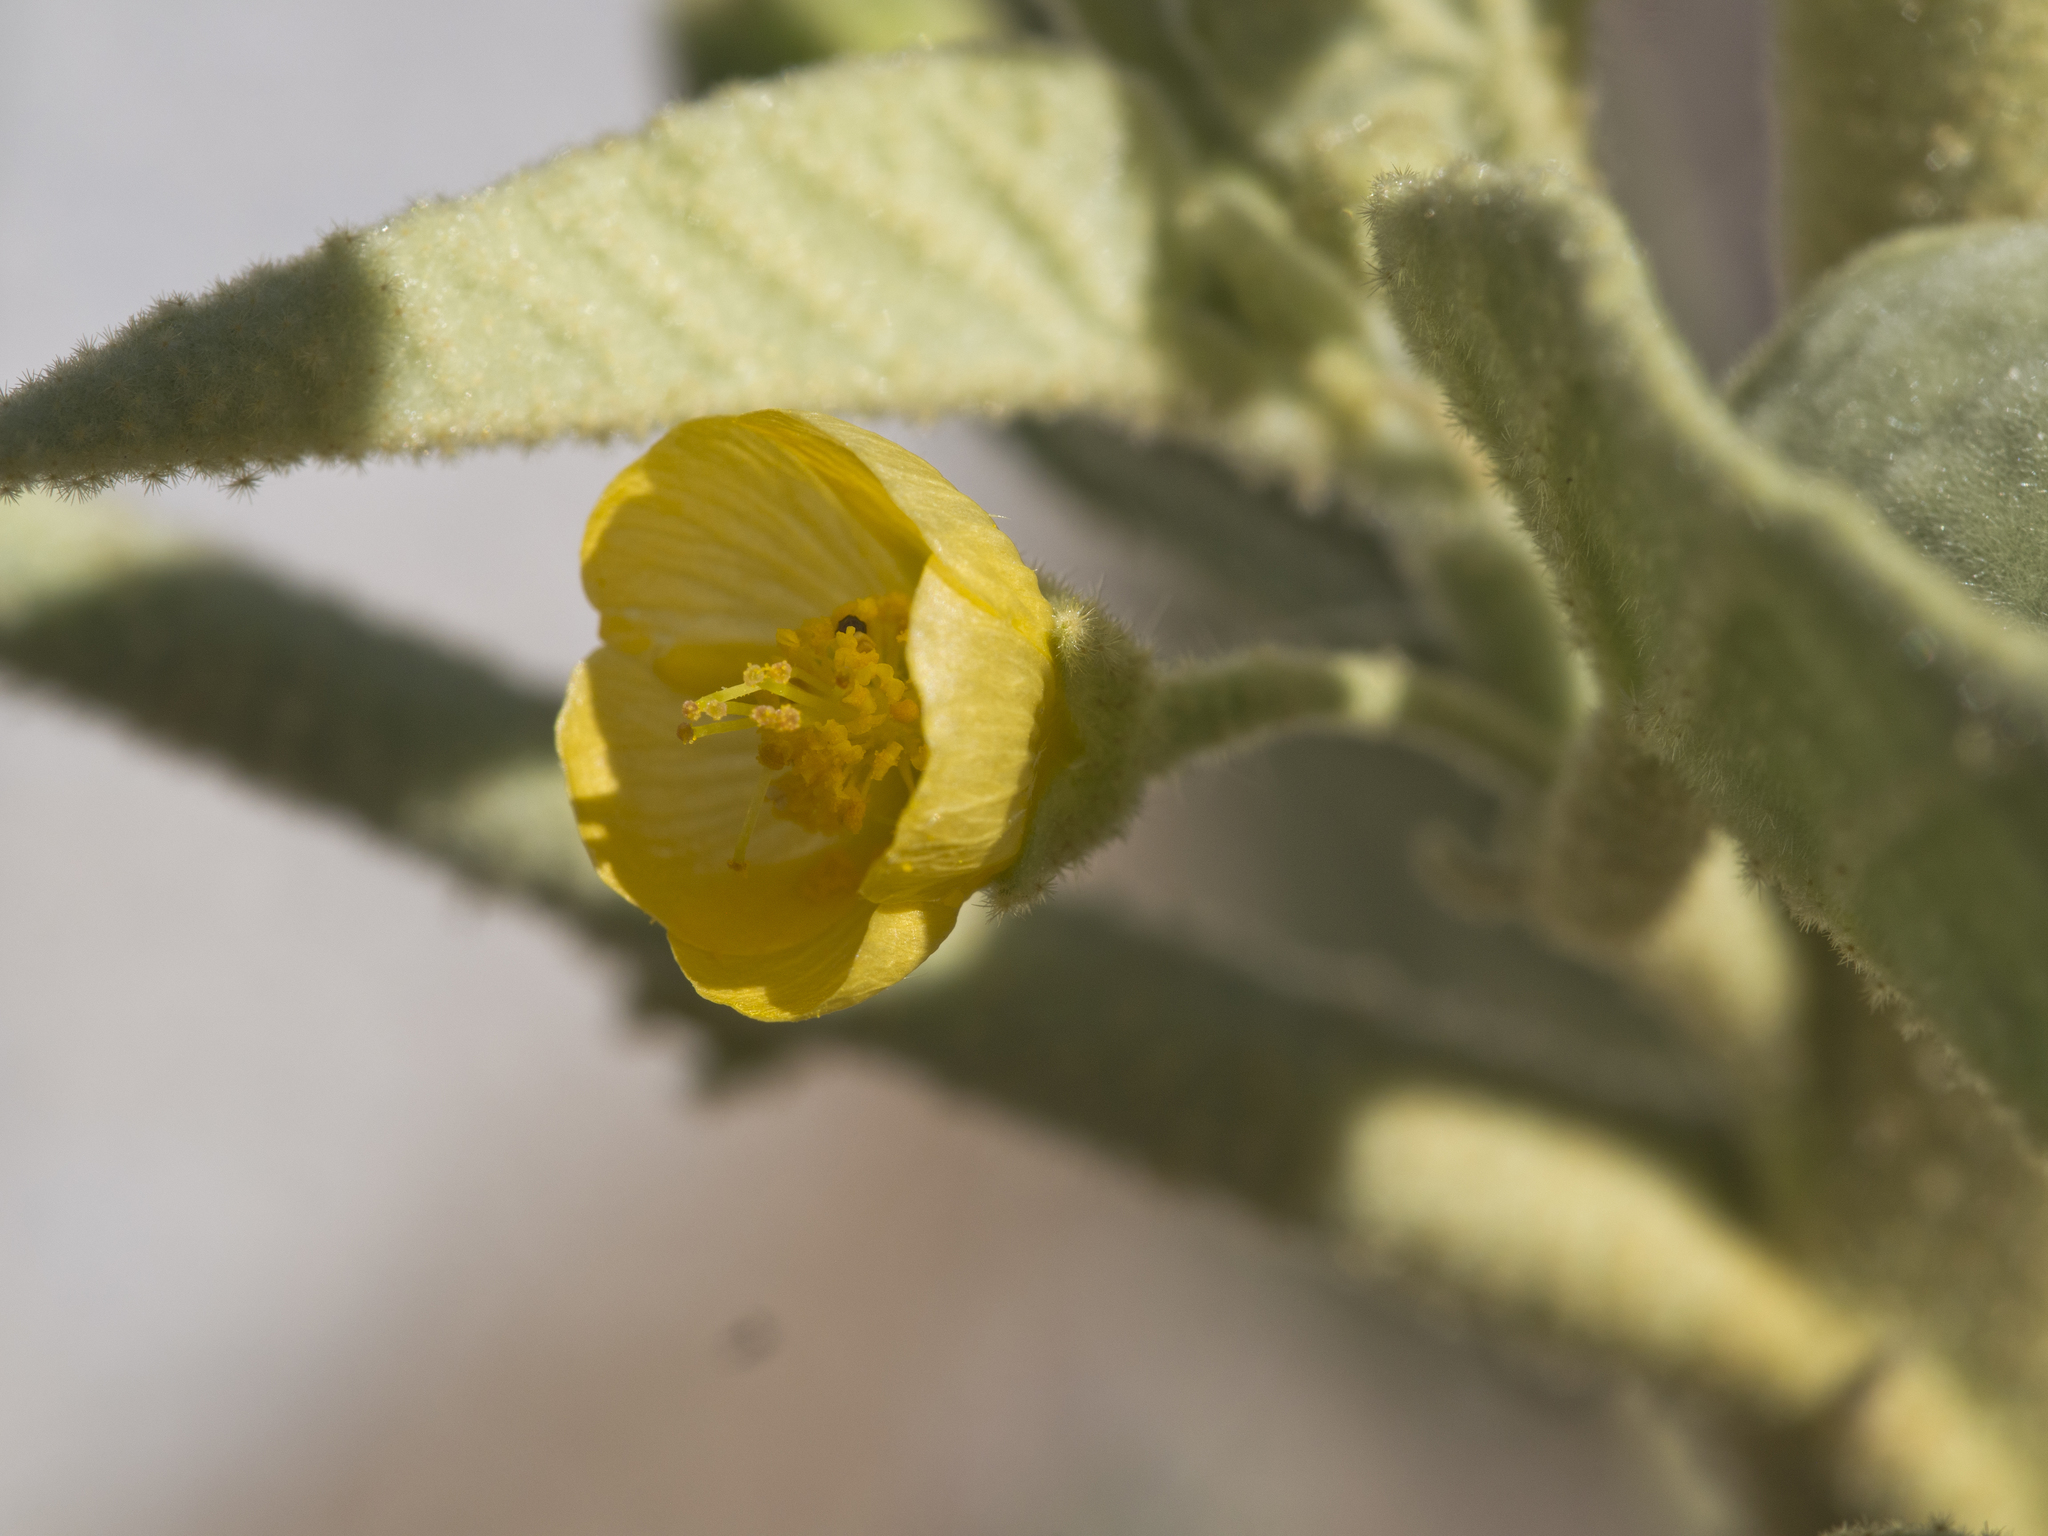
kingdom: Plantae
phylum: Tracheophyta
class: Magnoliopsida
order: Malvales
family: Malvaceae
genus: Horsfordia
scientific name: Horsfordia newberryi
